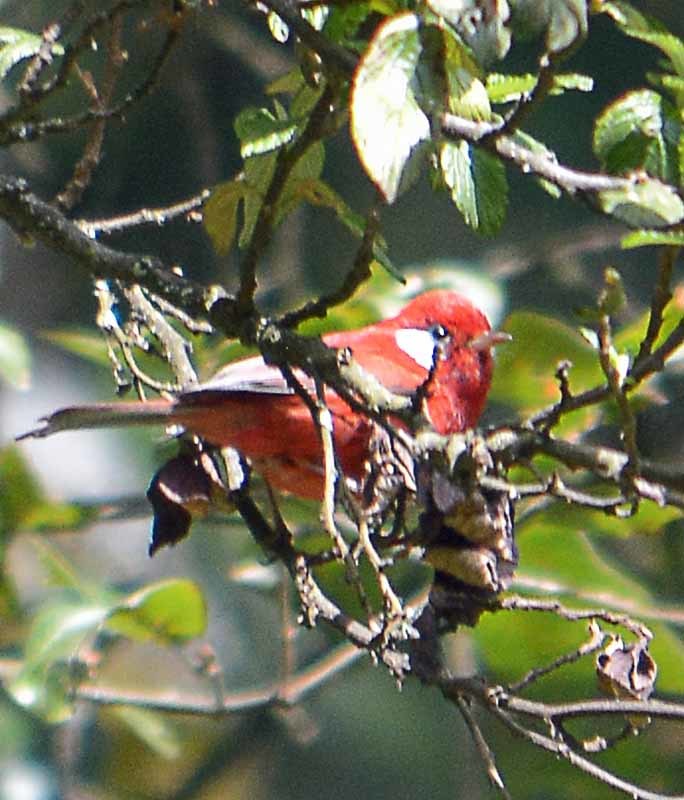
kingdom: Animalia
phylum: Chordata
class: Aves
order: Passeriformes
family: Parulidae
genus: Cardellina
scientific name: Cardellina rubra
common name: Red warbler
